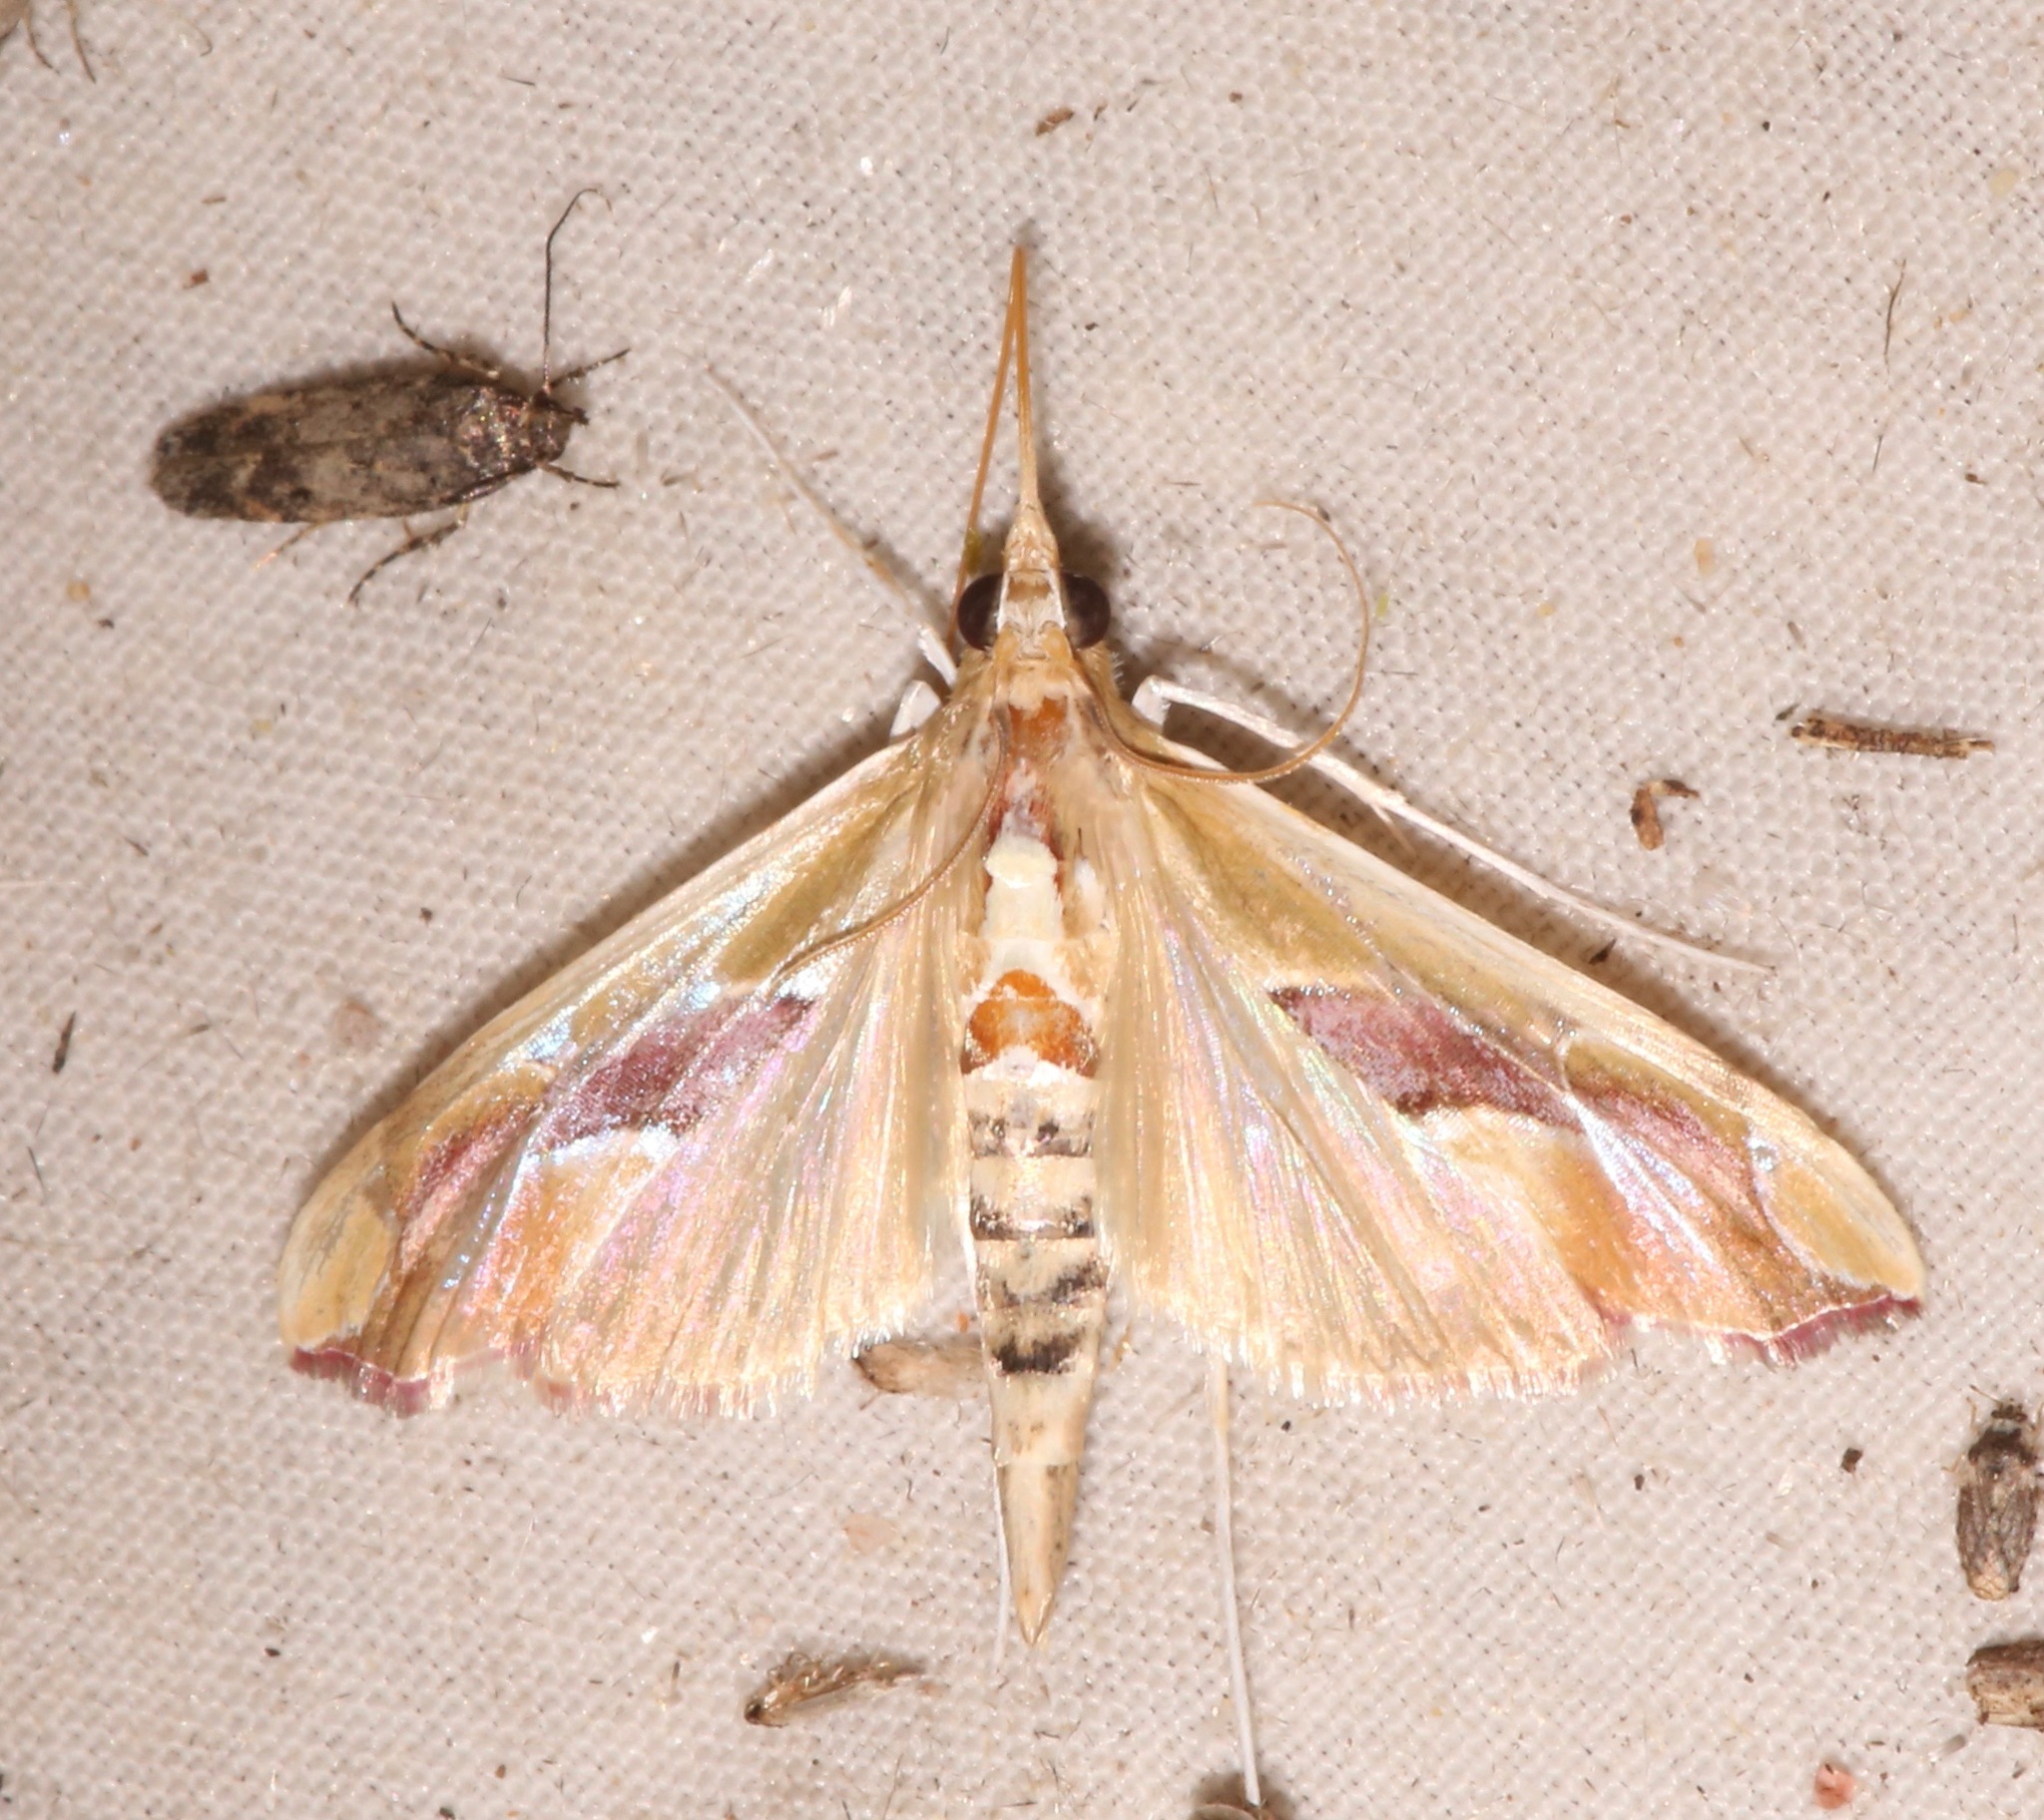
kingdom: Animalia
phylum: Arthropoda
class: Insecta
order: Lepidoptera
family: Crambidae
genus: Agathodes
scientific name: Agathodes monstralis
